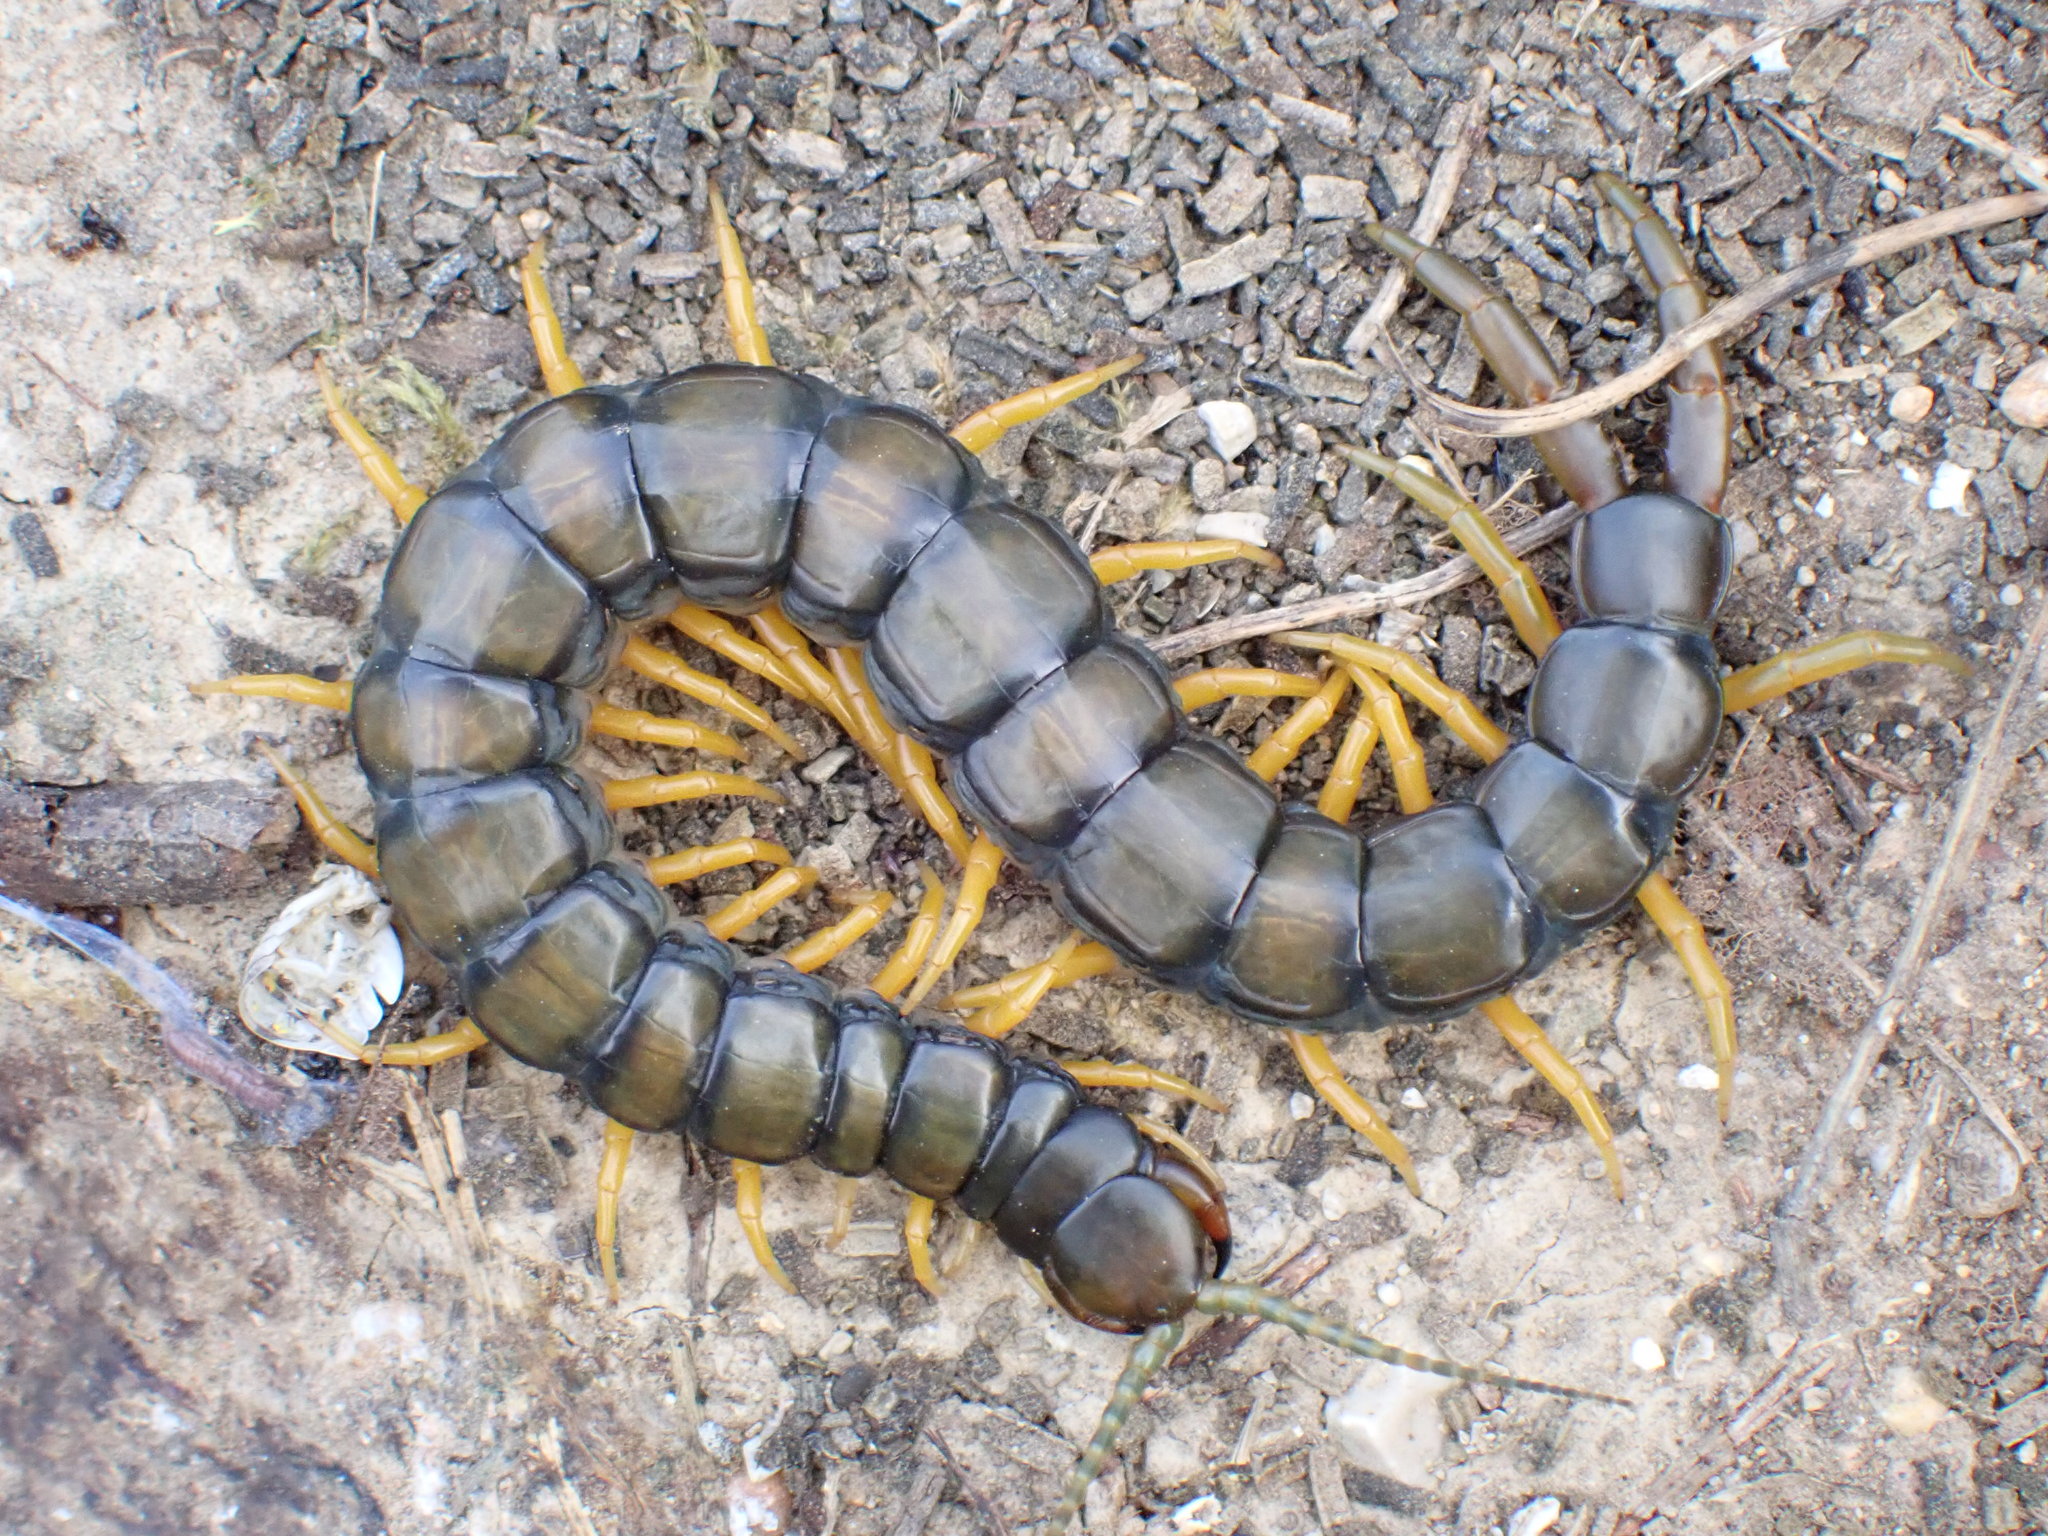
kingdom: Animalia
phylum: Arthropoda
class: Chilopoda
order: Scolopendromorpha
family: Scolopendridae
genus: Scolopendra
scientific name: Scolopendra cingulata
